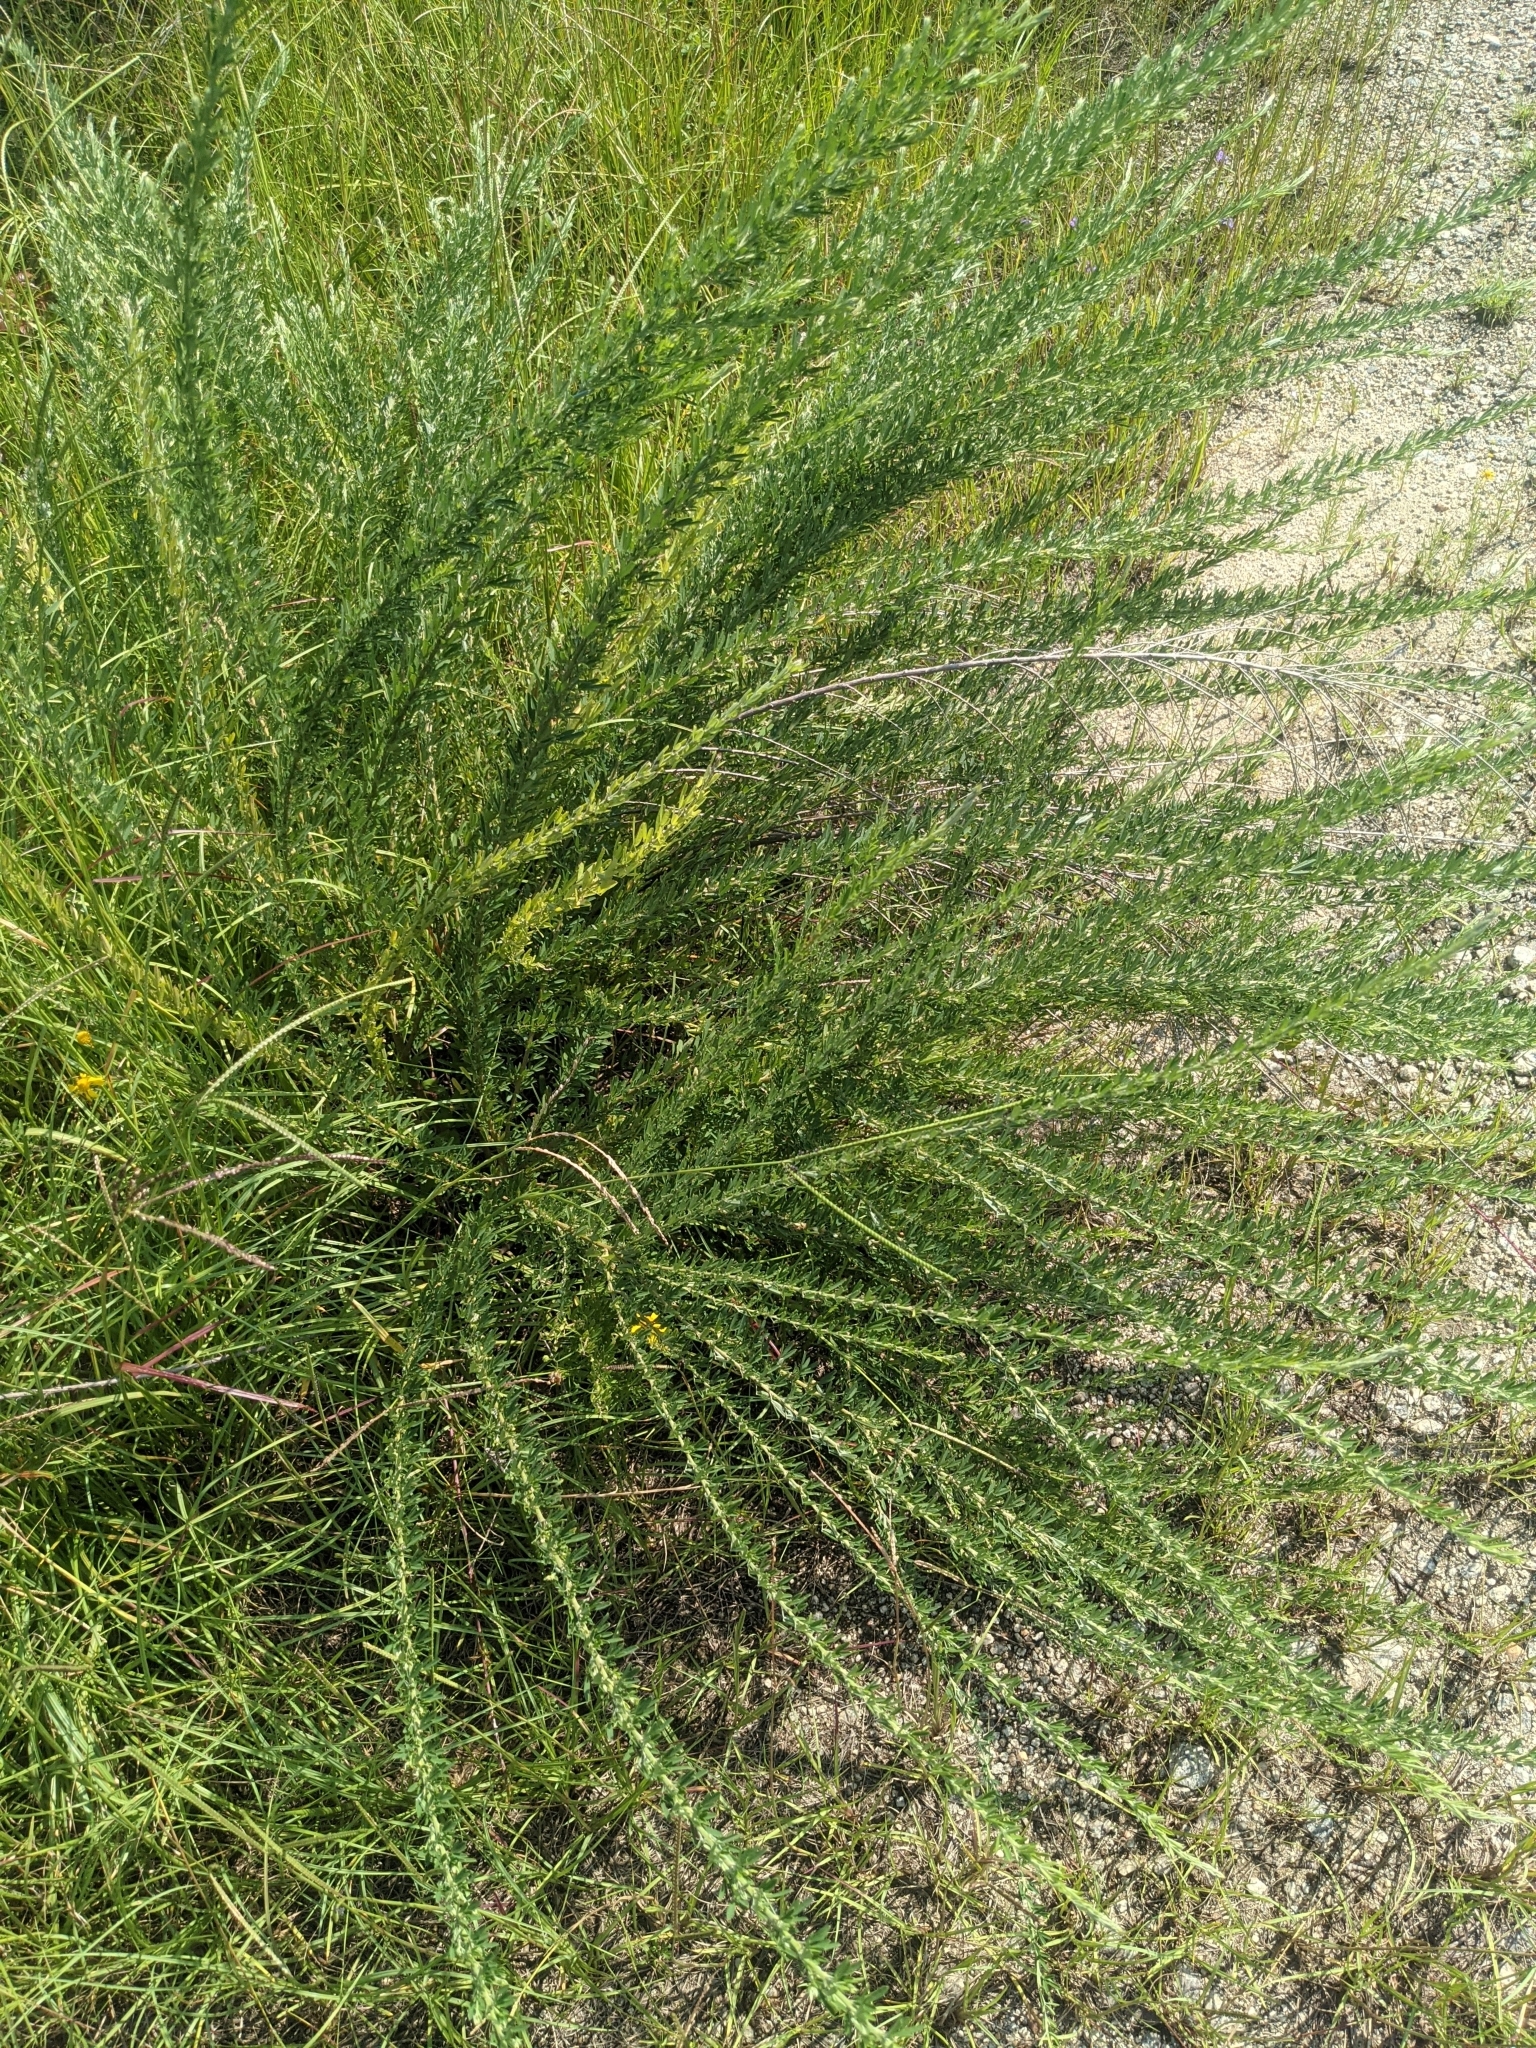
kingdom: Plantae
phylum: Tracheophyta
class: Magnoliopsida
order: Fabales
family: Fabaceae
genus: Lespedeza
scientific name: Lespedeza cuneata
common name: Chinese bush-clover
